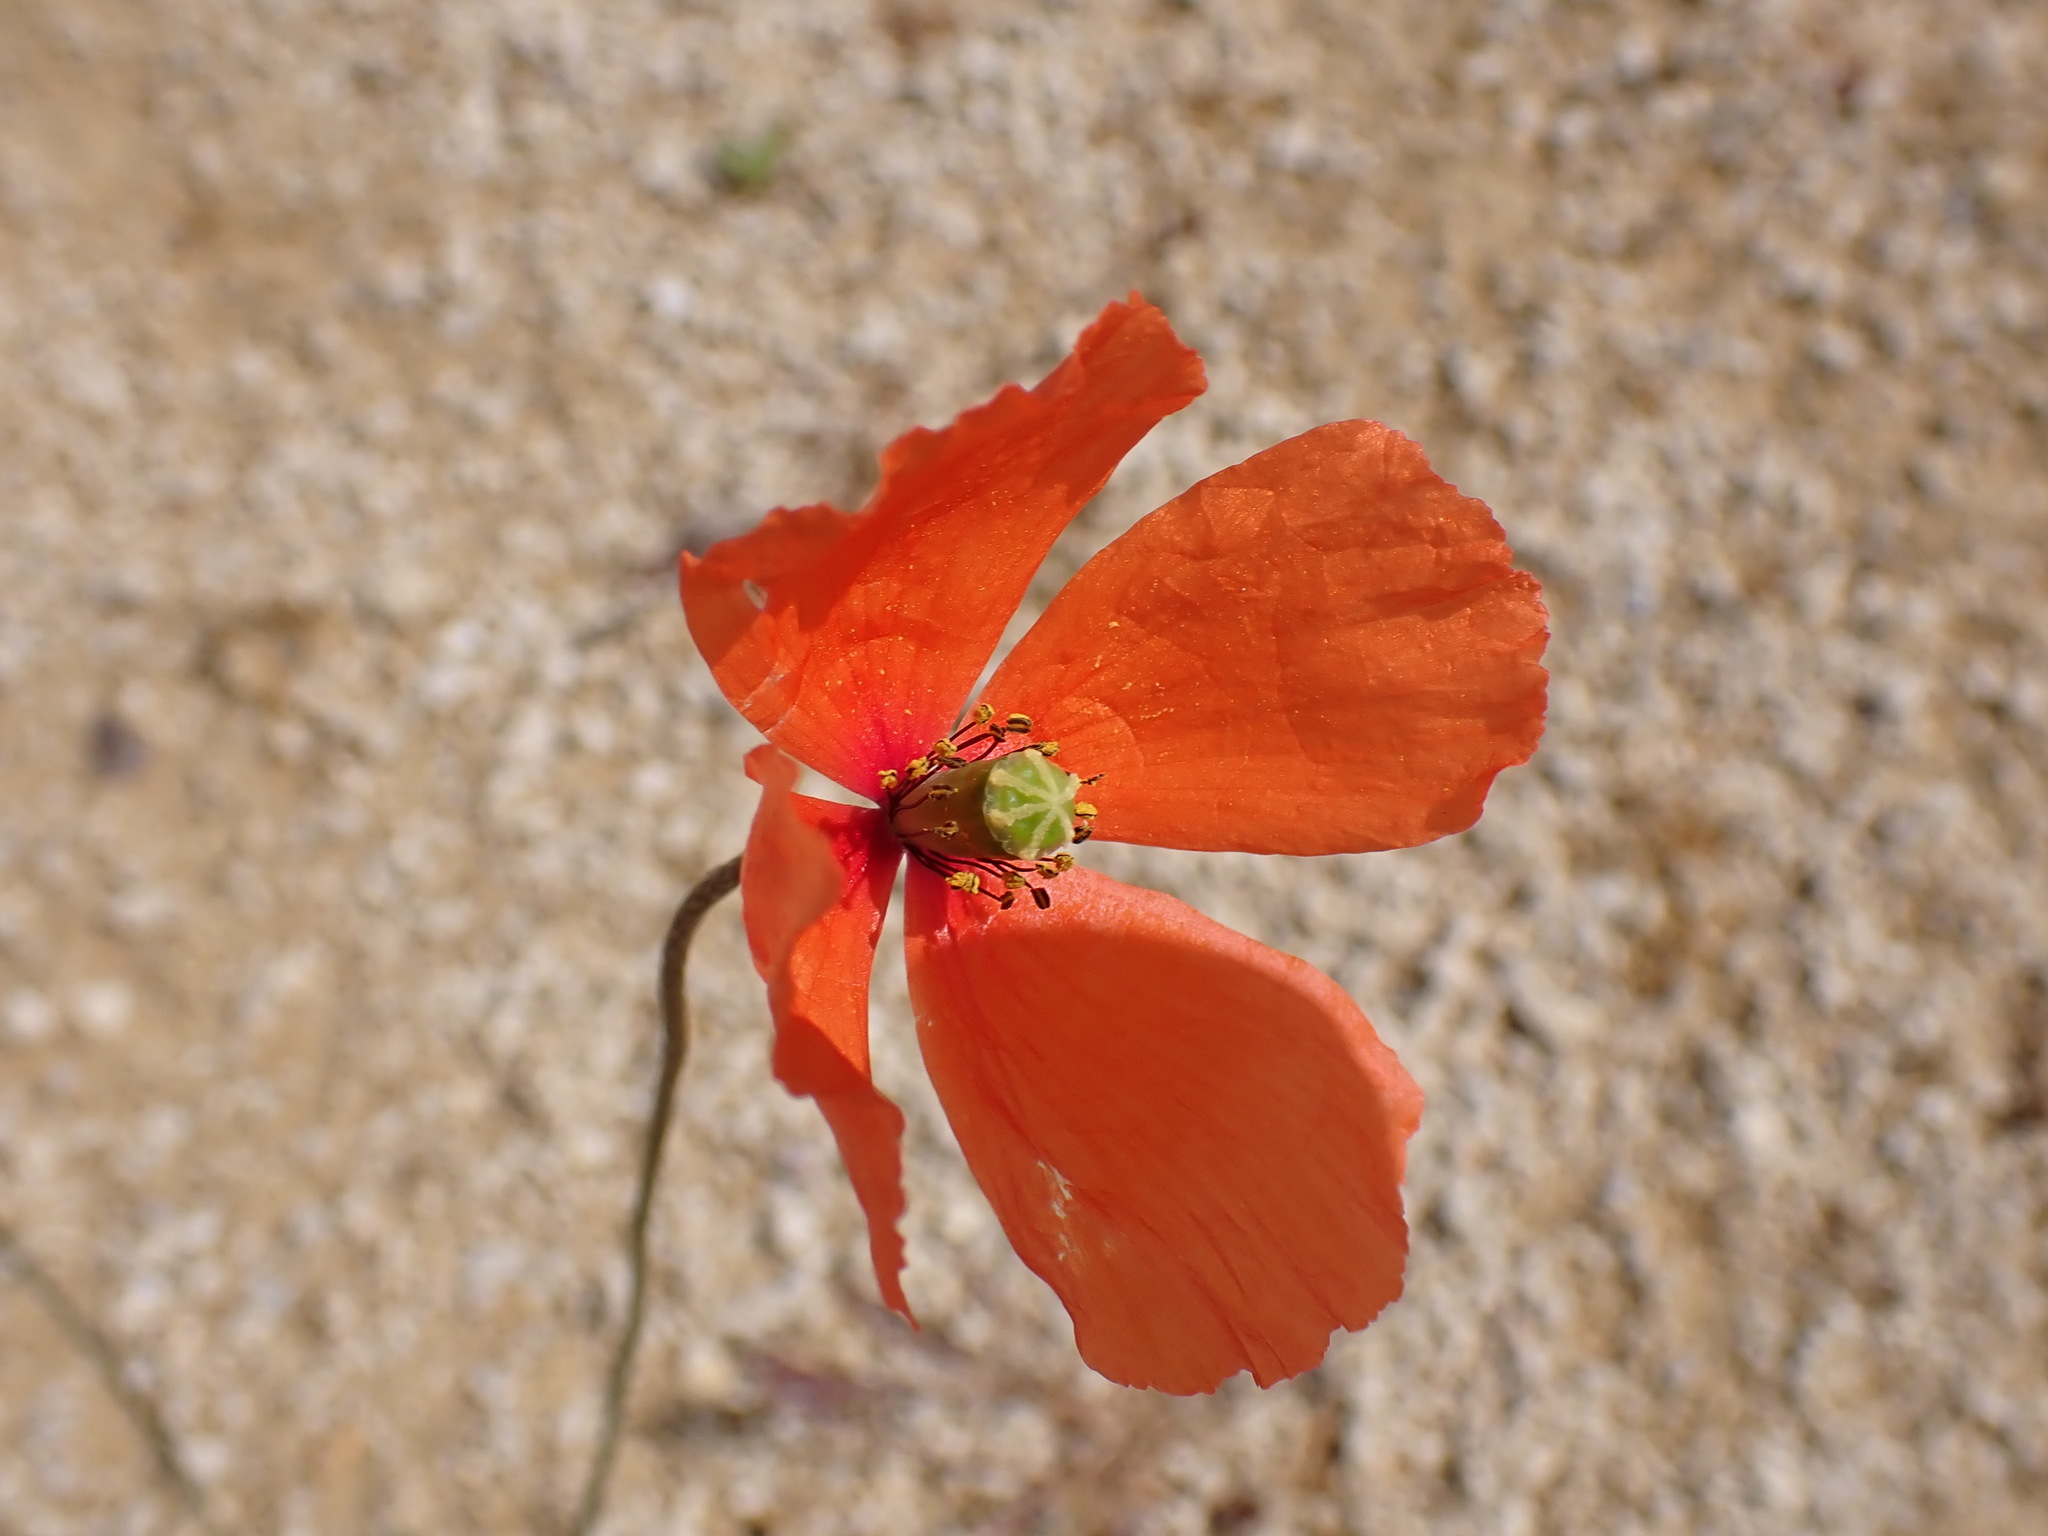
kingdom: Plantae
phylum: Tracheophyta
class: Magnoliopsida
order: Ranunculales
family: Papaveraceae
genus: Papaver
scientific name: Papaver dubium
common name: Long-headed poppy
